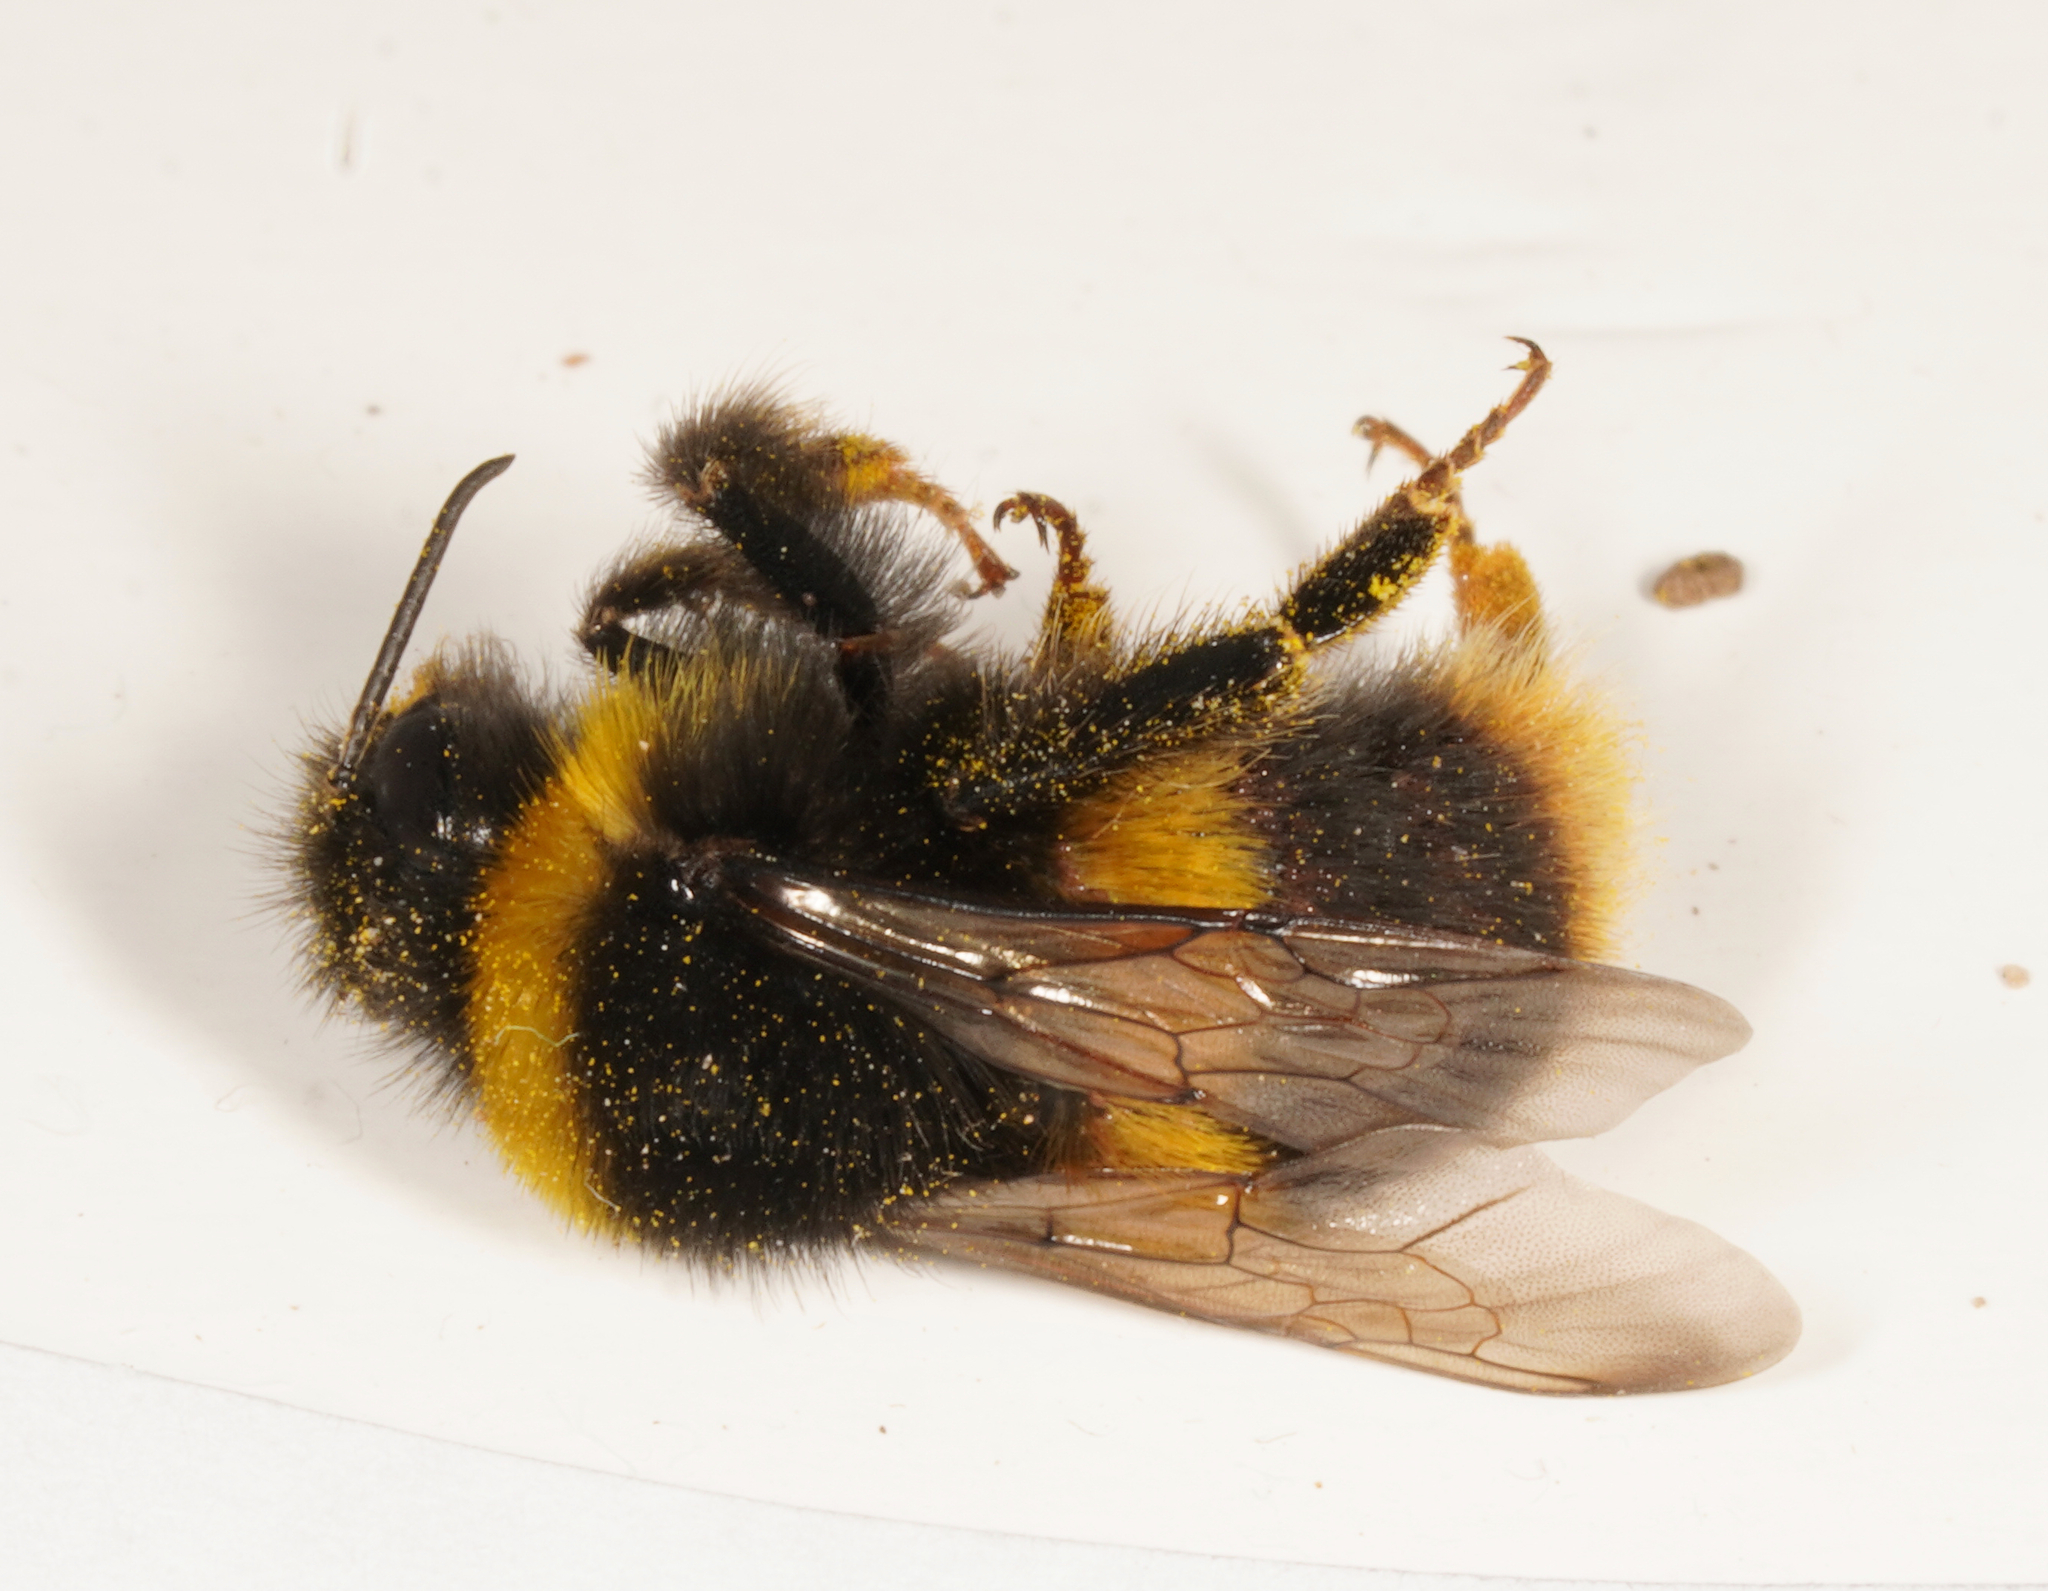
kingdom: Animalia
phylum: Arthropoda
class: Insecta
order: Hymenoptera
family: Apidae
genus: Bombus
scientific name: Bombus terrestris
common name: Buff-tailed bumblebee
